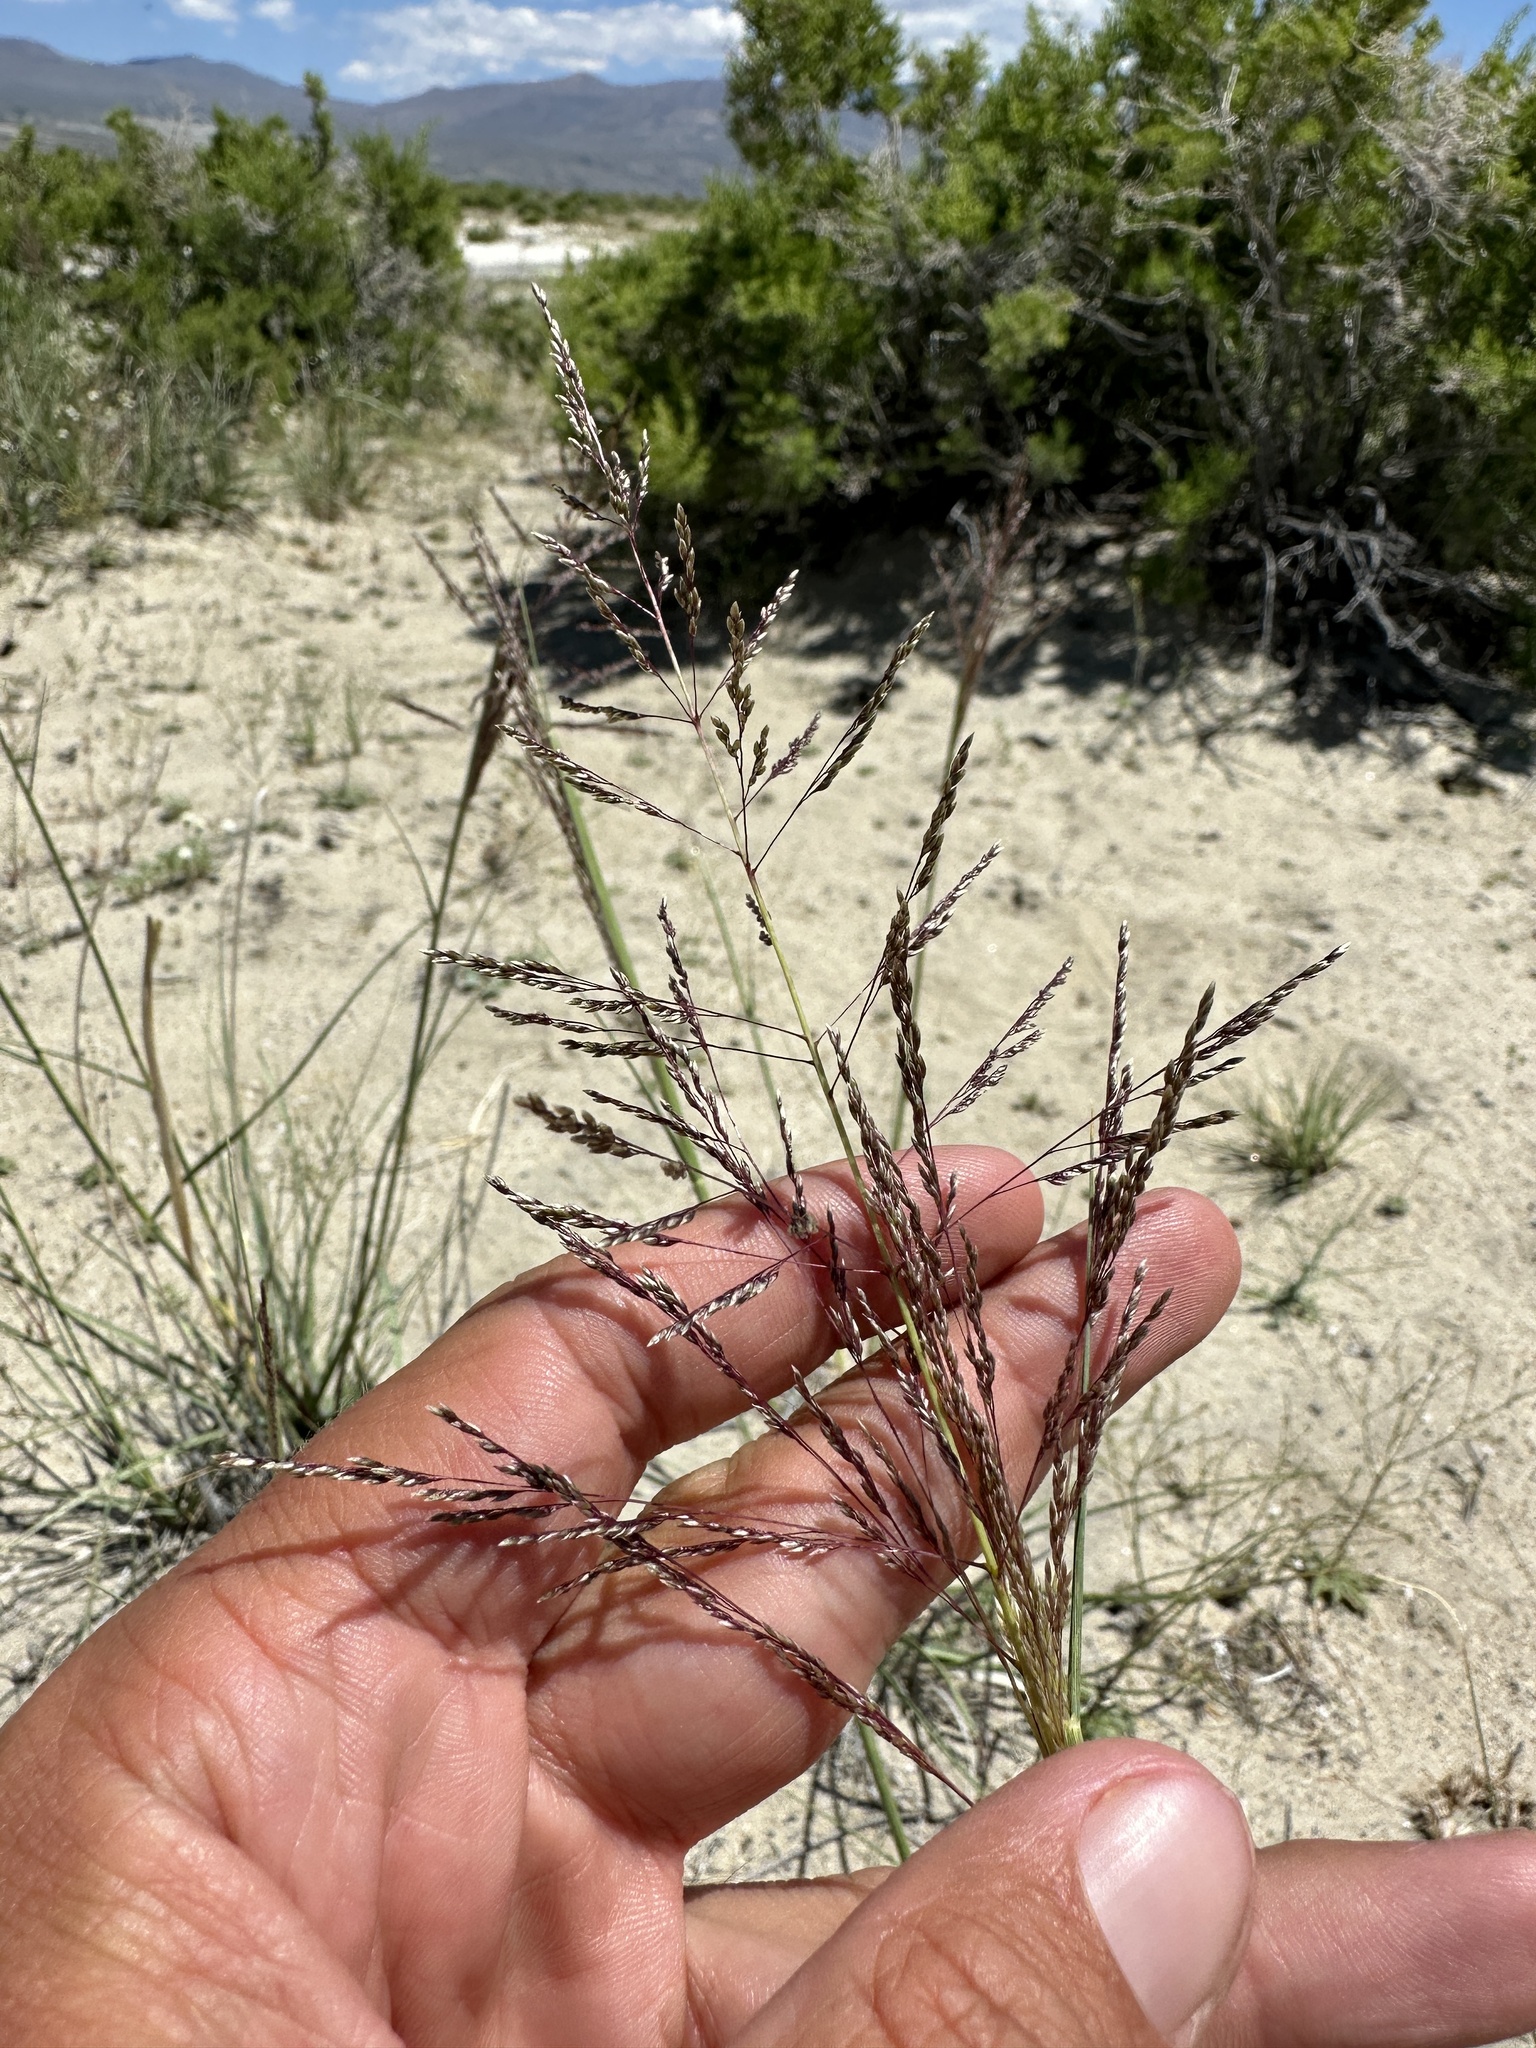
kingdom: Plantae
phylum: Tracheophyta
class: Liliopsida
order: Poales
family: Poaceae
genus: Sporobolus
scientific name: Sporobolus airoides
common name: Alkali sacaton
